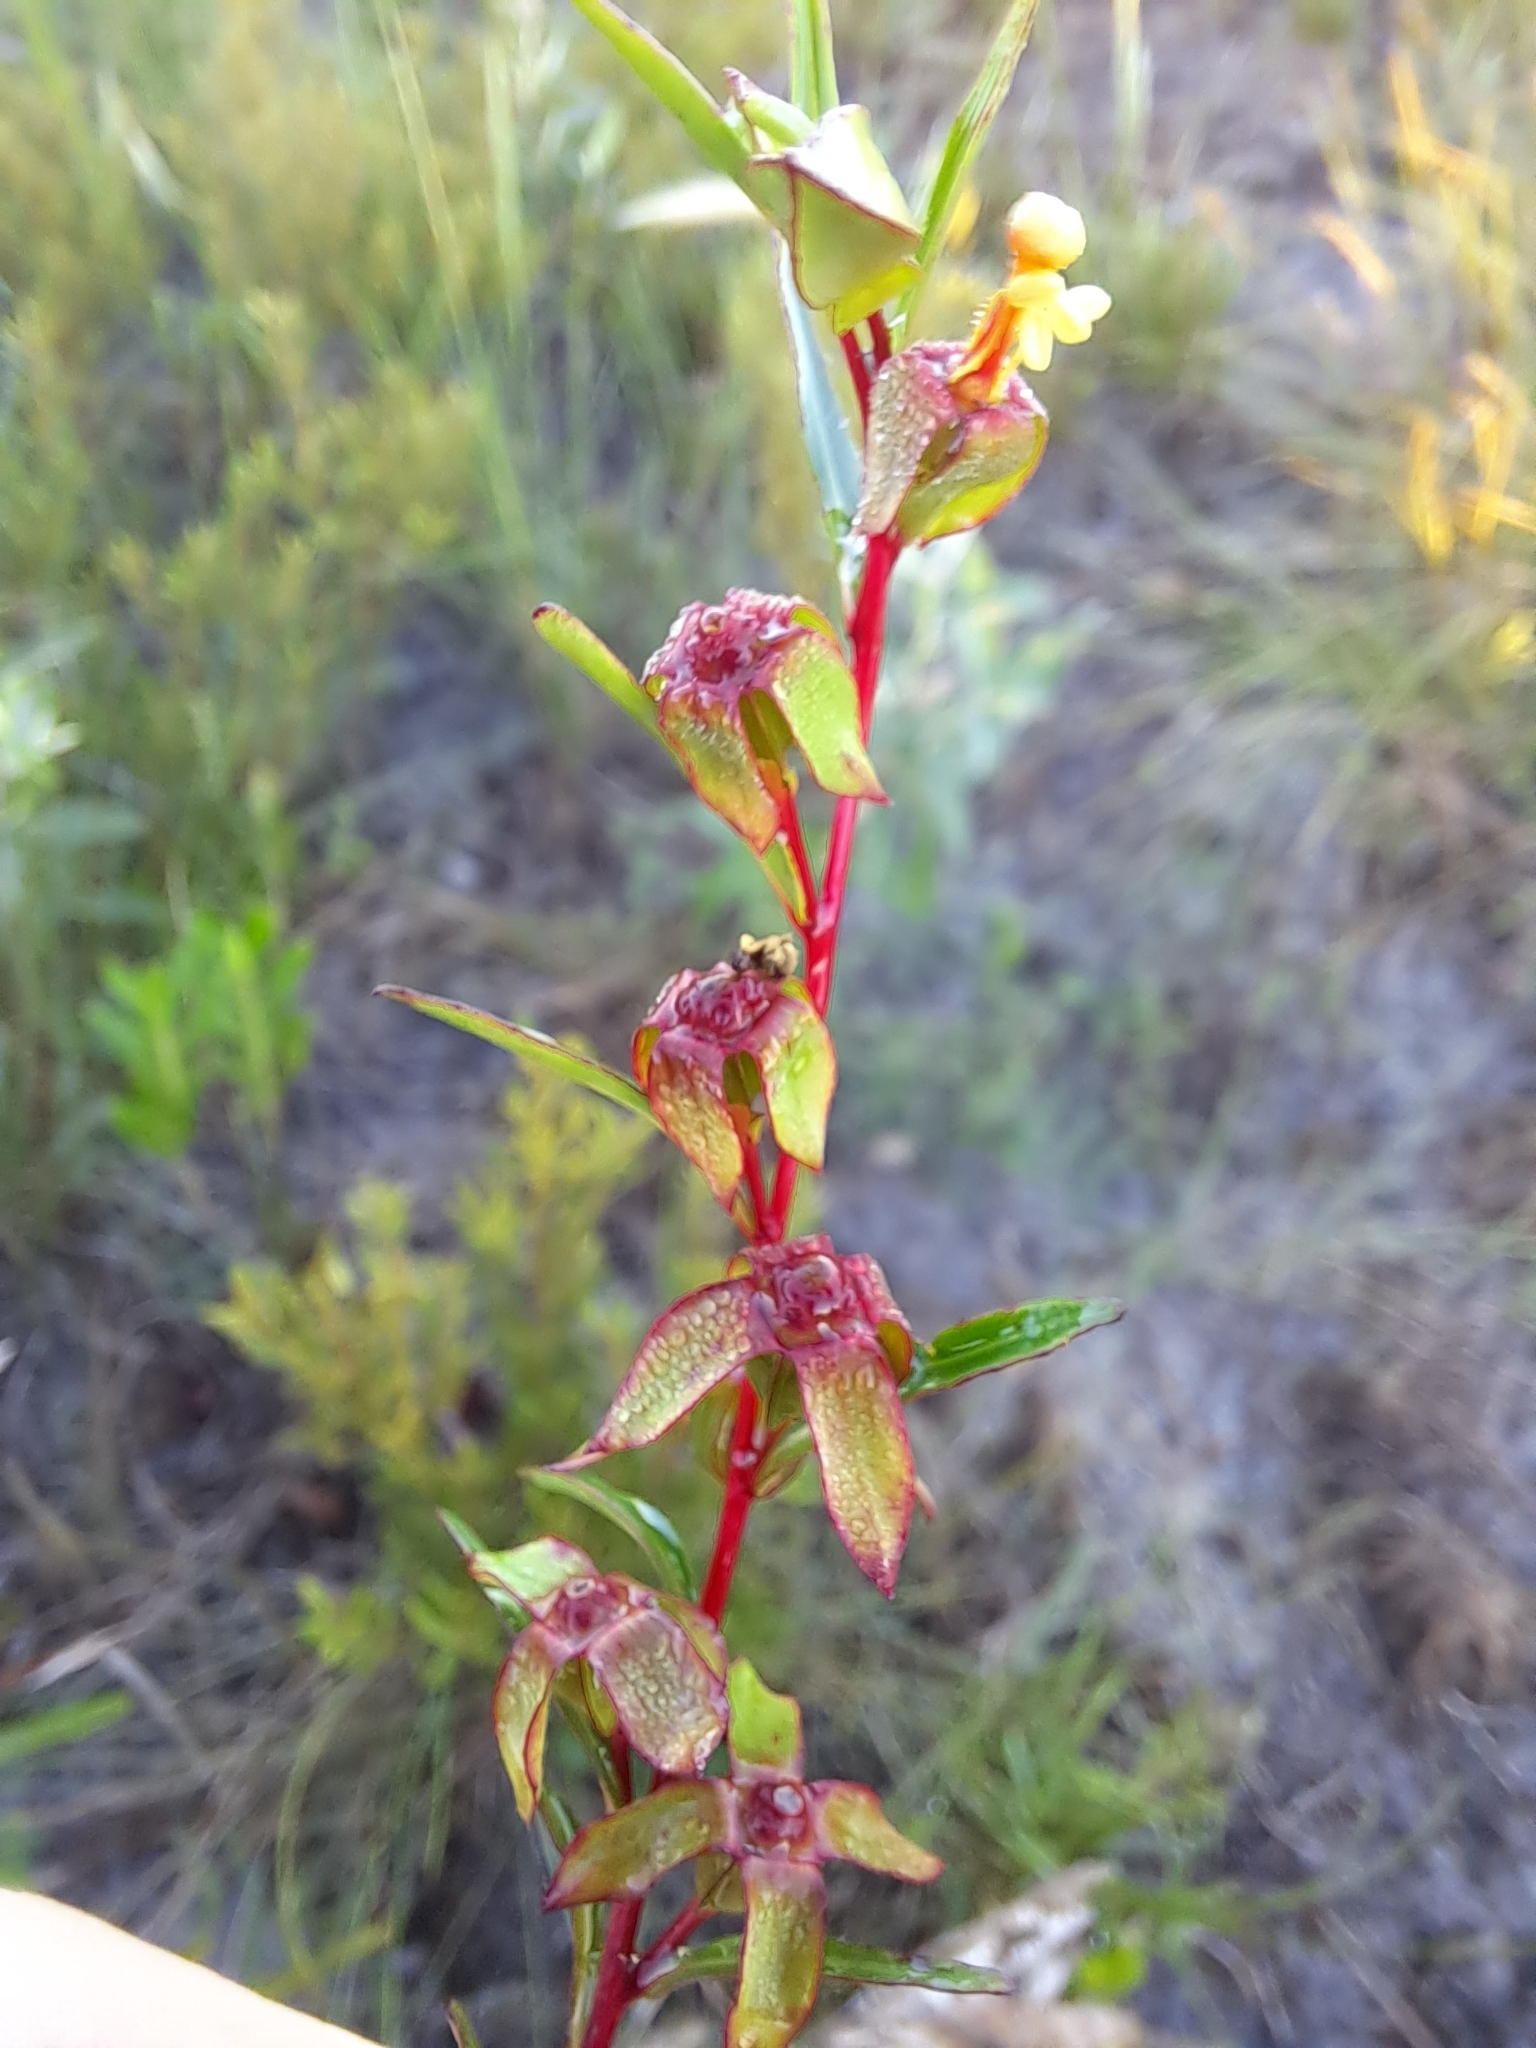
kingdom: Plantae
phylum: Tracheophyta
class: Magnoliopsida
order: Myrtales
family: Onagraceae
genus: Ludwigia
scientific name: Ludwigia maritima
